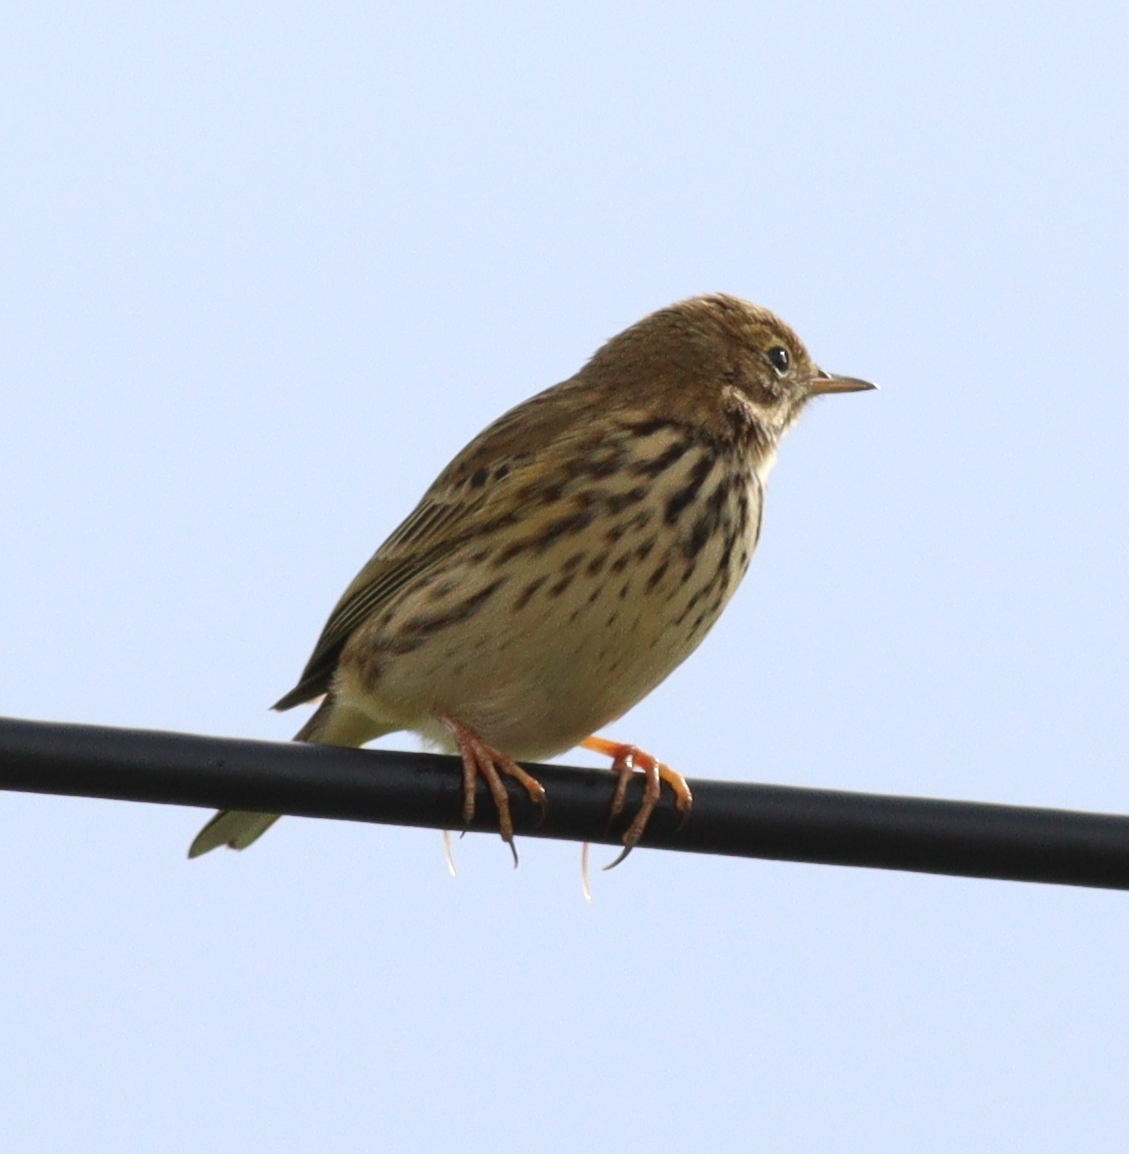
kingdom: Animalia
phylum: Chordata
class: Aves
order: Passeriformes
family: Motacillidae
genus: Anthus
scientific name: Anthus pratensis
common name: Meadow pipit
